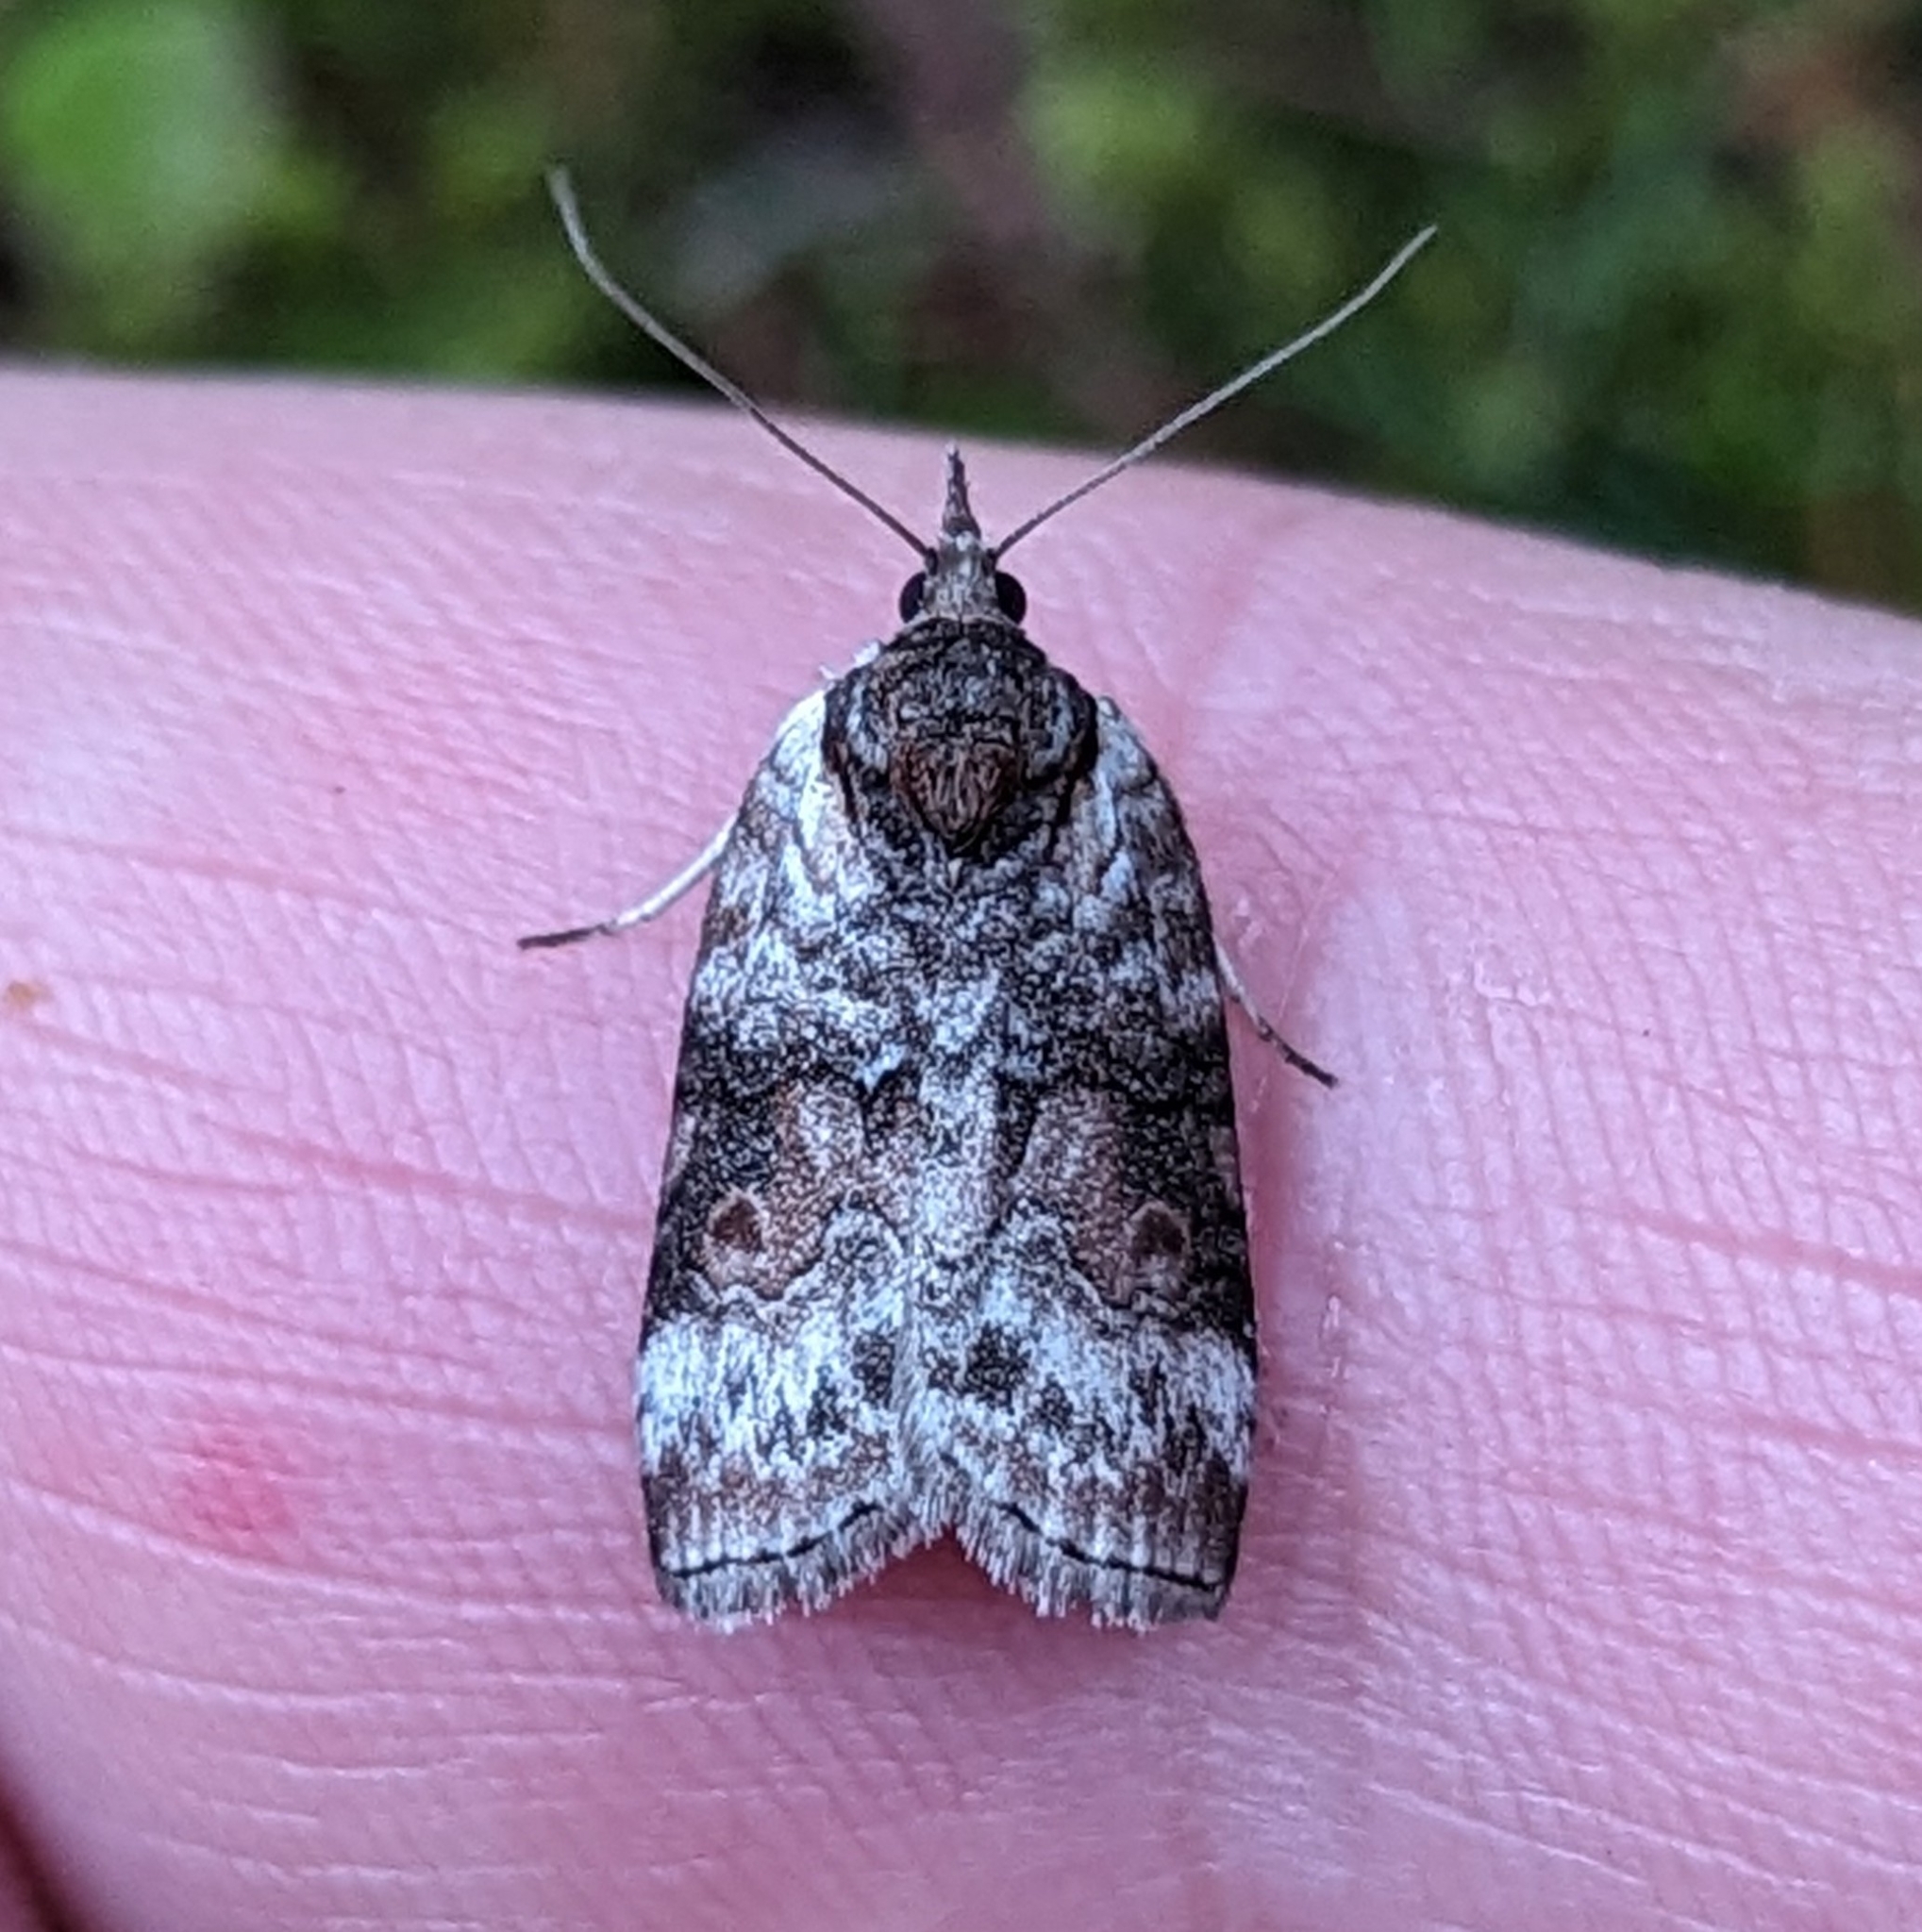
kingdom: Animalia
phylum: Arthropoda
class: Insecta
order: Lepidoptera
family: Nolidae
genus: Nycteola
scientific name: Nycteola cinereana
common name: Grey midget moth
